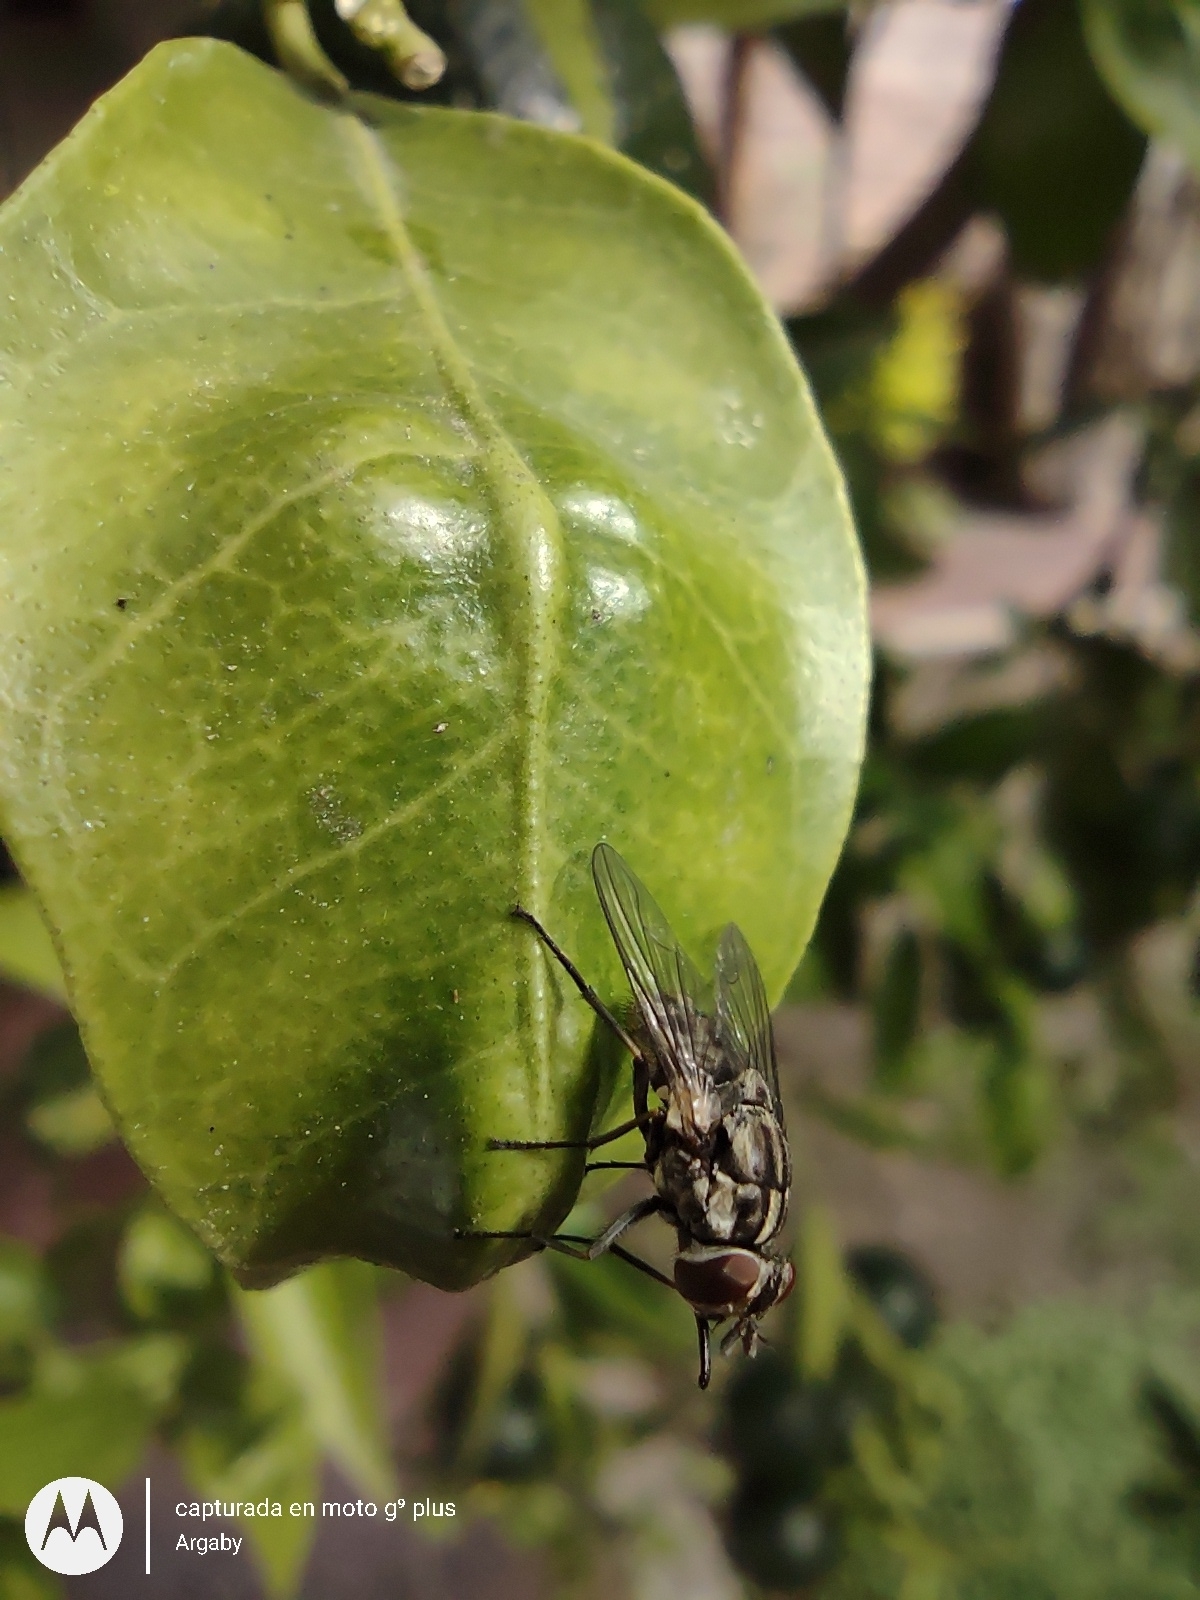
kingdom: Animalia
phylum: Arthropoda
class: Insecta
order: Diptera
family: Muscidae
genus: Stomoxys
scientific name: Stomoxys calcitrans
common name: Stable fly
